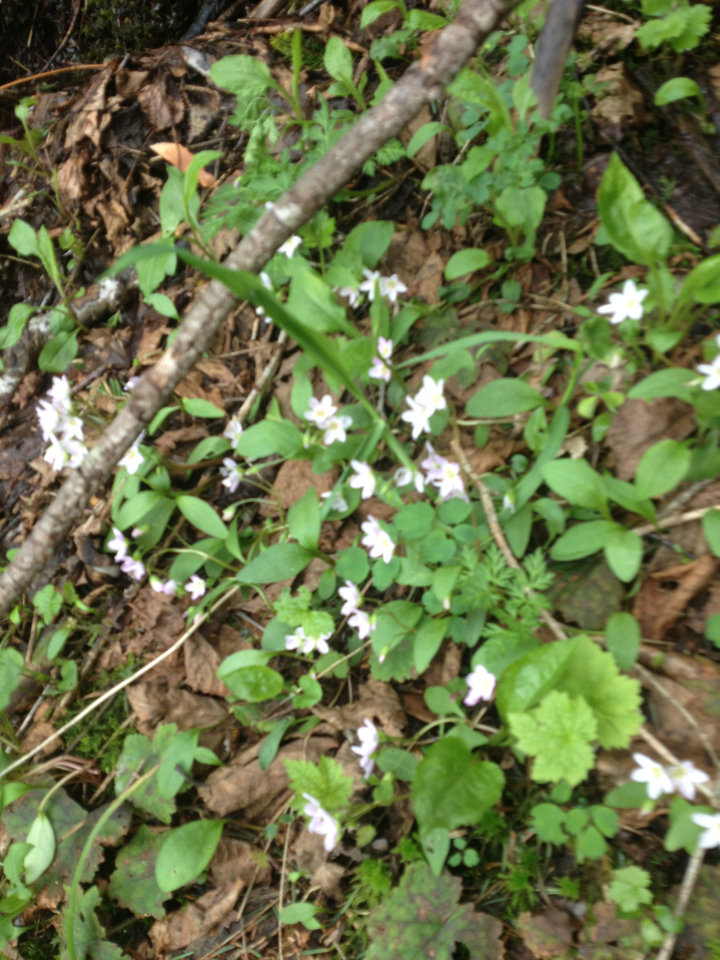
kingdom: Plantae
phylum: Tracheophyta
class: Magnoliopsida
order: Caryophyllales
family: Montiaceae
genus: Claytonia
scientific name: Claytonia caroliniana
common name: Carolina spring beauty
